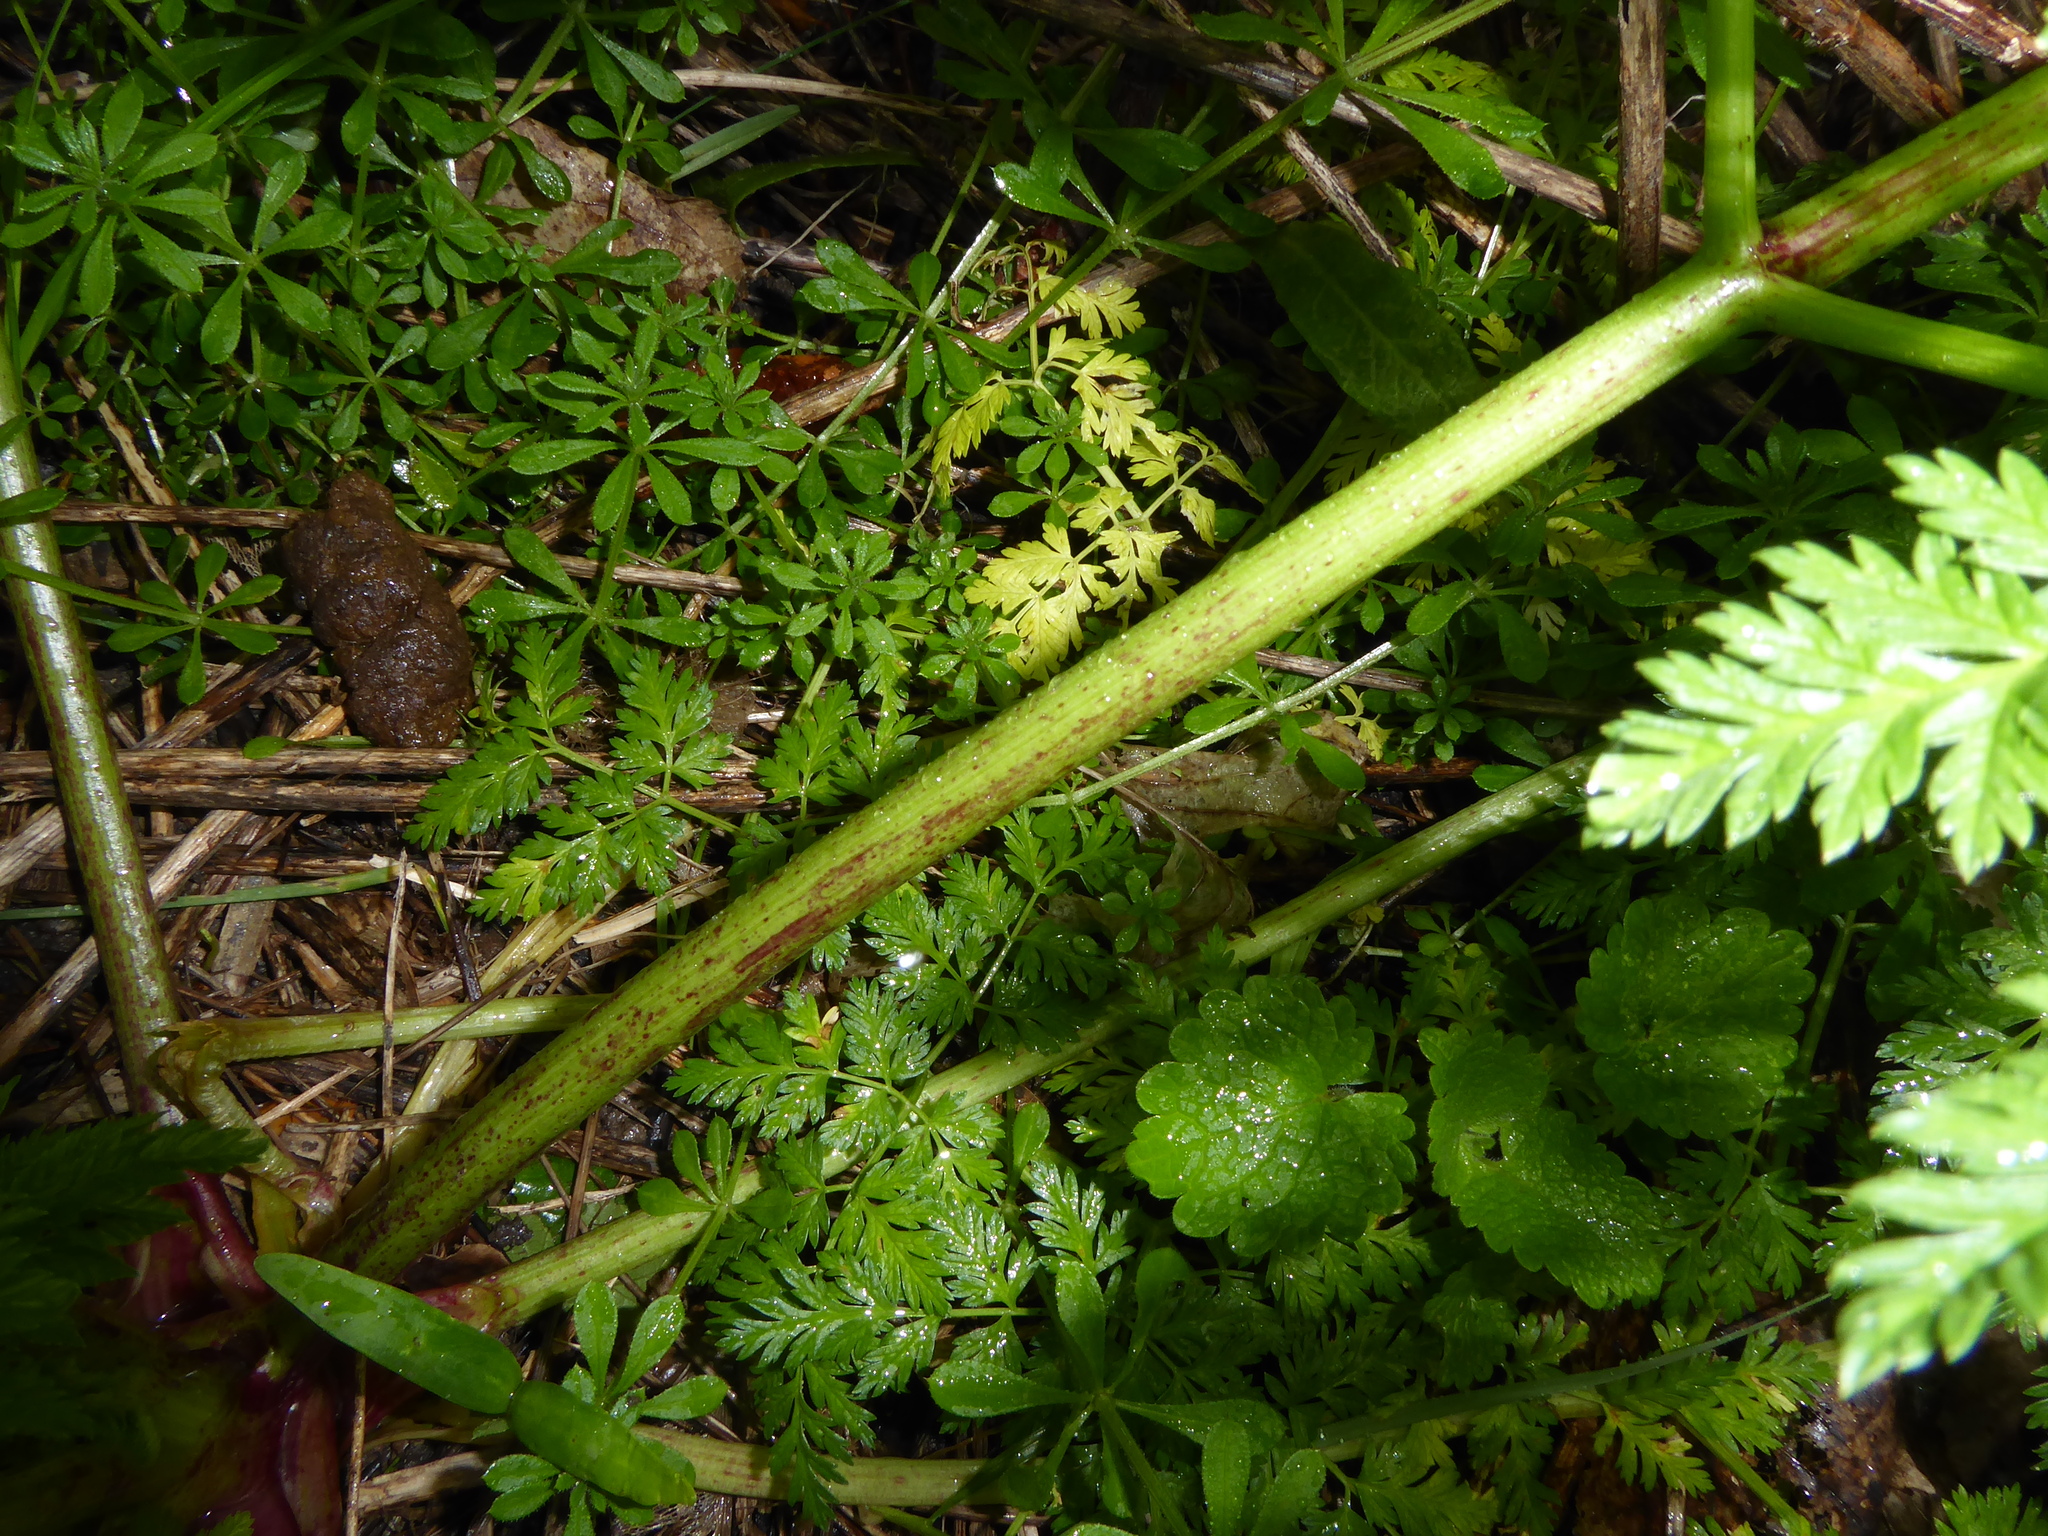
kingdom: Plantae
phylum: Tracheophyta
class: Magnoliopsida
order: Apiales
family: Apiaceae
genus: Conium
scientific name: Conium maculatum
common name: Hemlock
